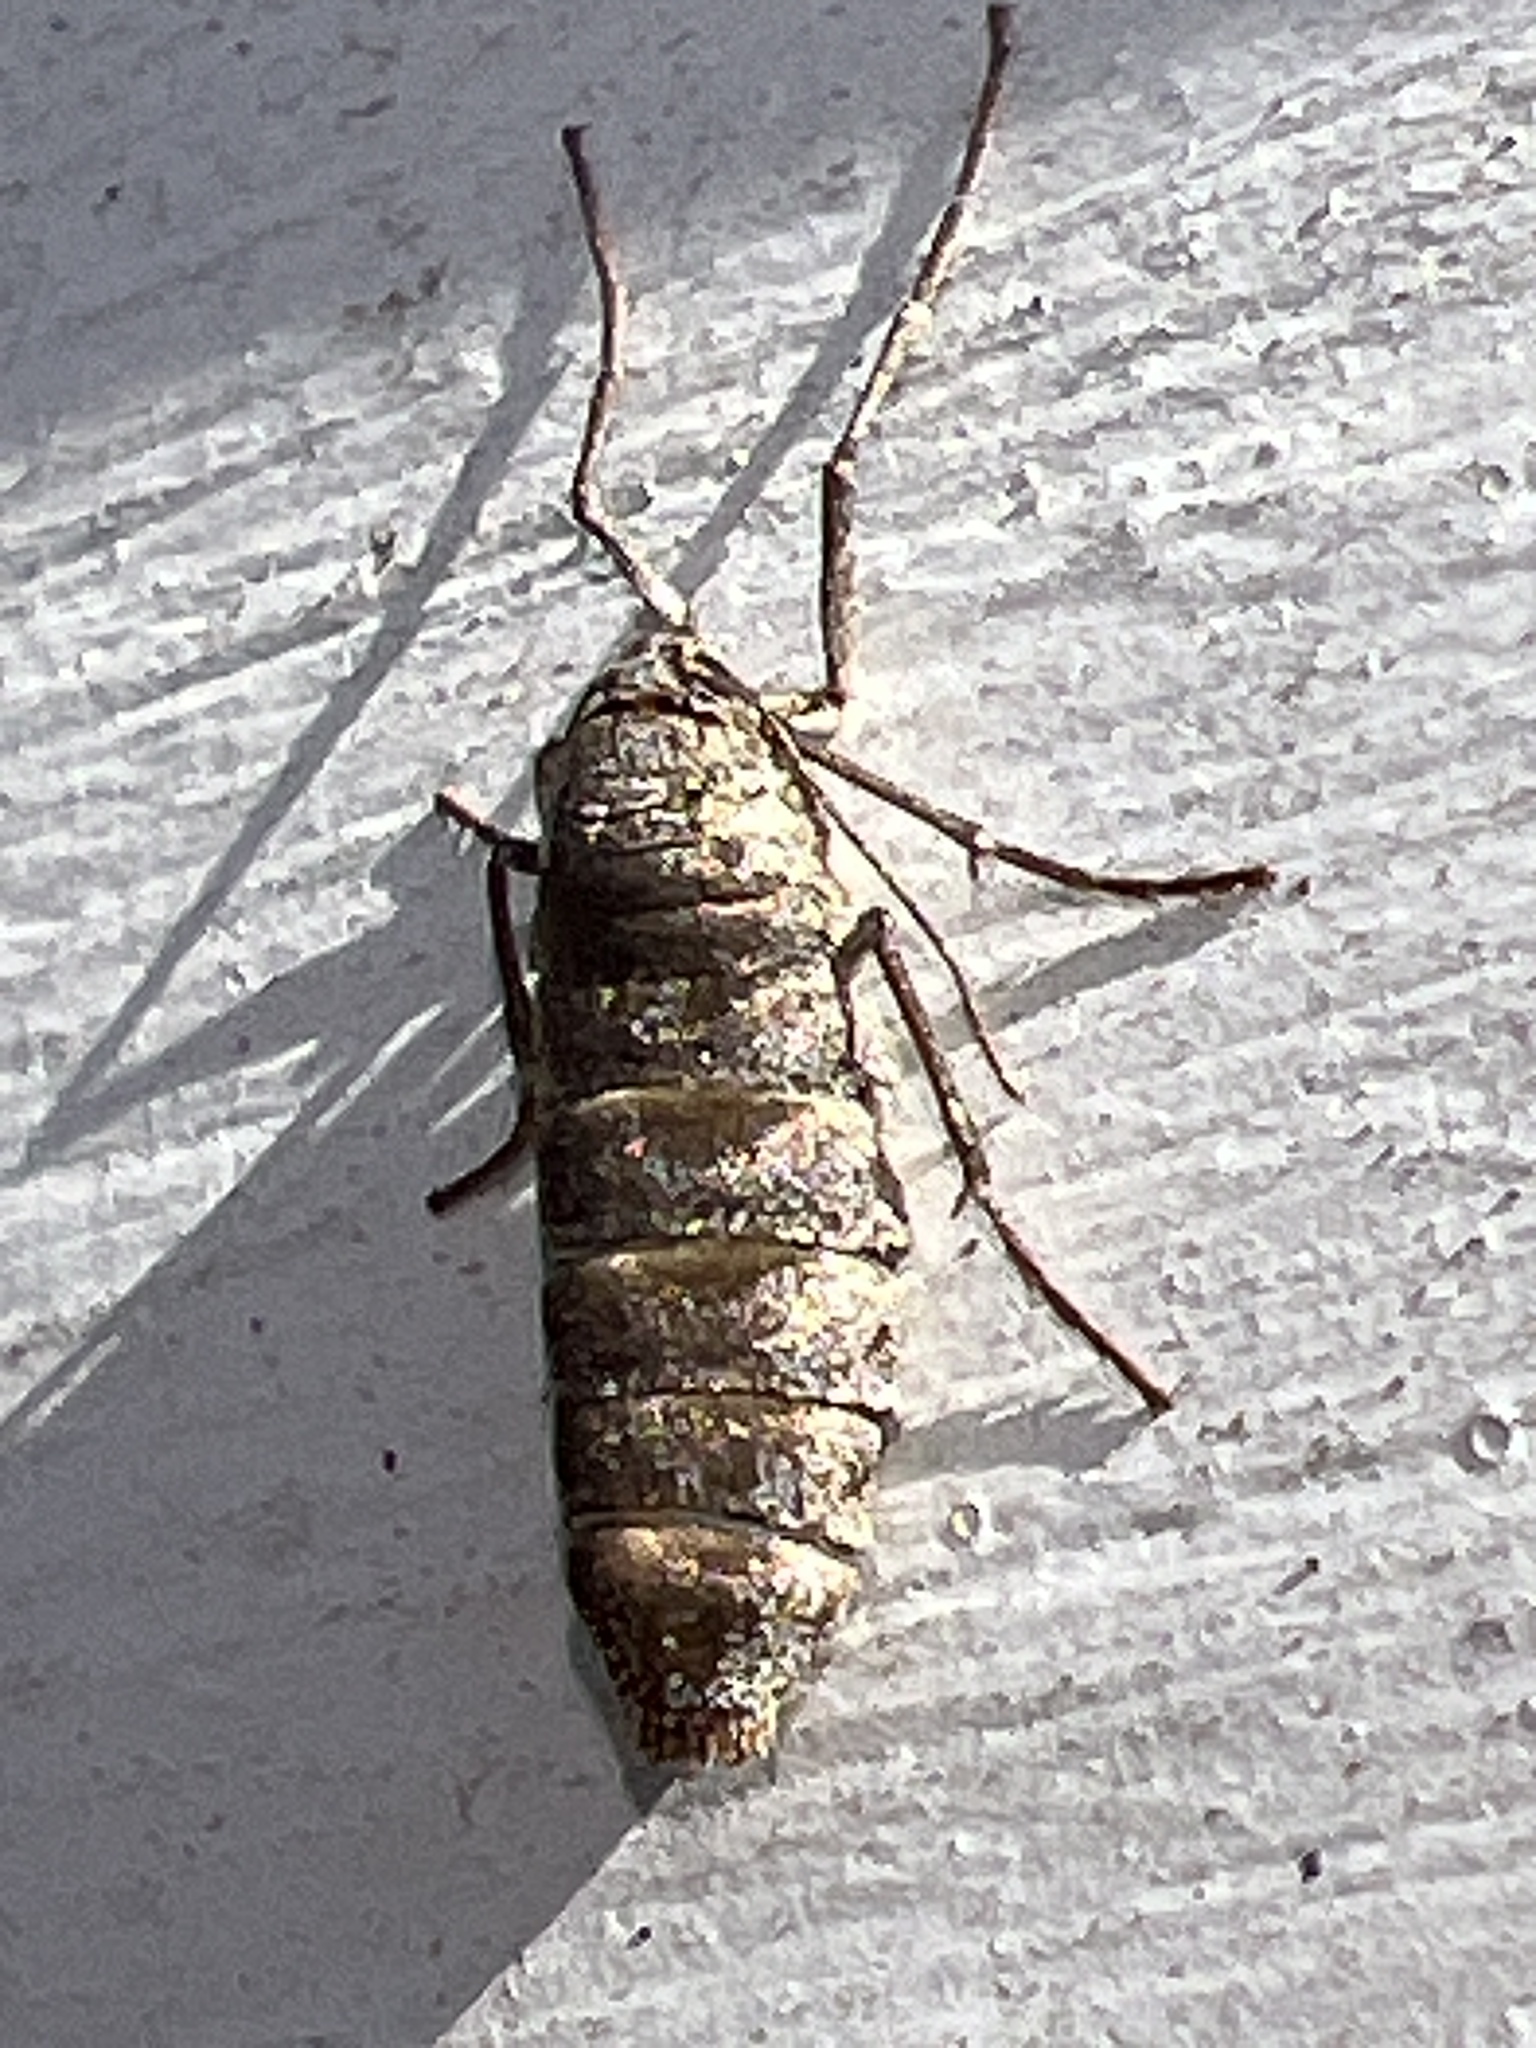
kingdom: Animalia
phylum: Arthropoda
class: Insecta
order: Lepidoptera
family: Geometridae
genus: Alsophila
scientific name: Alsophila pometaria
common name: Fall cankerworm
